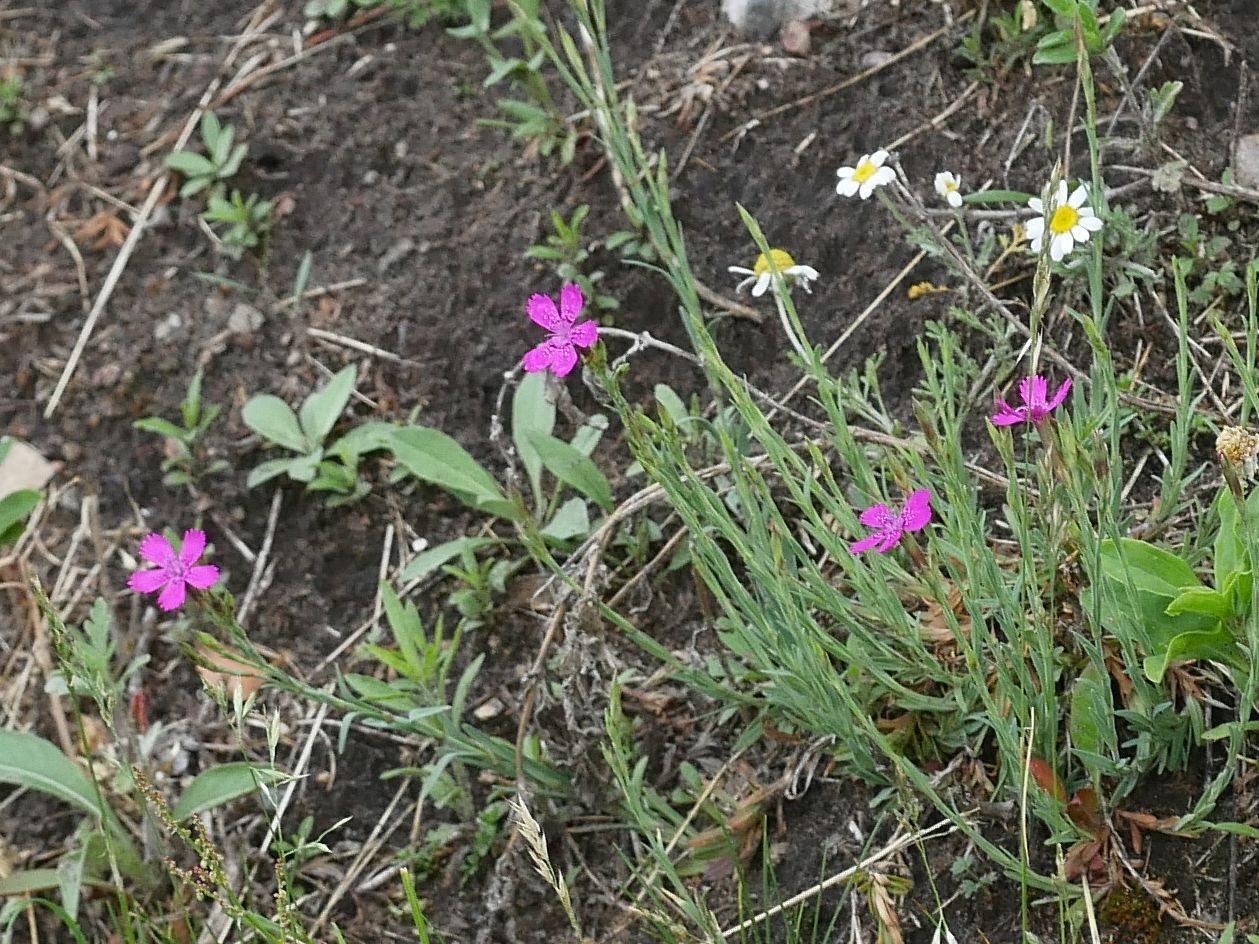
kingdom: Plantae
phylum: Tracheophyta
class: Magnoliopsida
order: Caryophyllales
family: Caryophyllaceae
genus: Dianthus
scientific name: Dianthus deltoides
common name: Maiden pink
